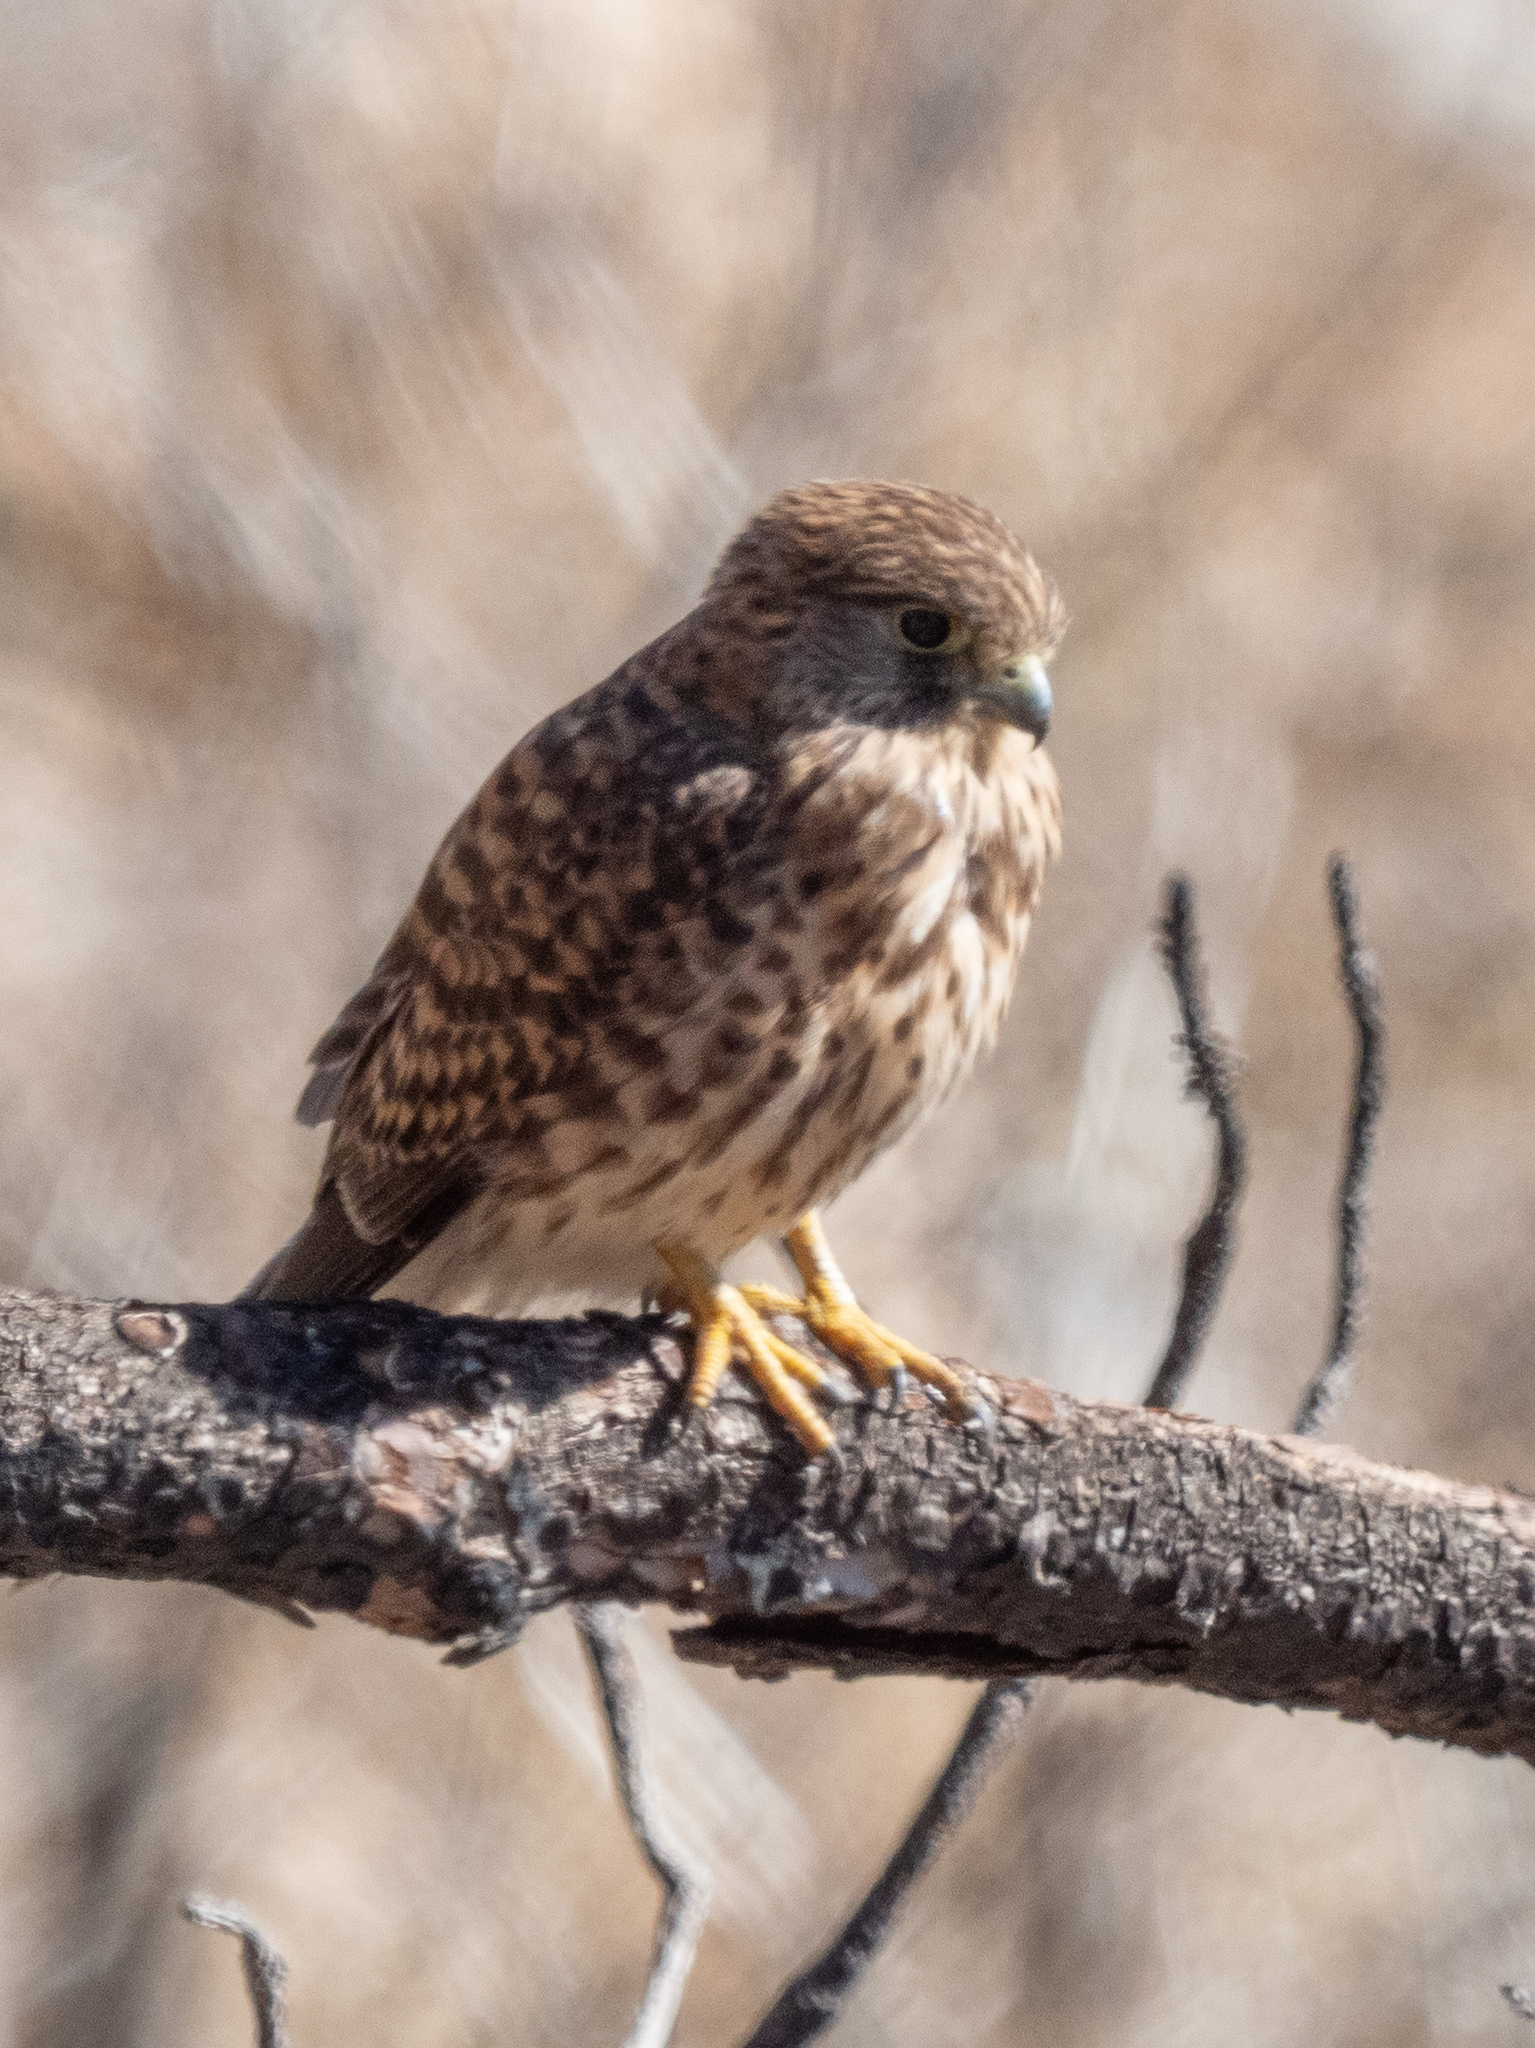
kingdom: Animalia
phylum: Chordata
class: Aves
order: Falconiformes
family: Falconidae
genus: Falco
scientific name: Falco tinnunculus
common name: Common kestrel
